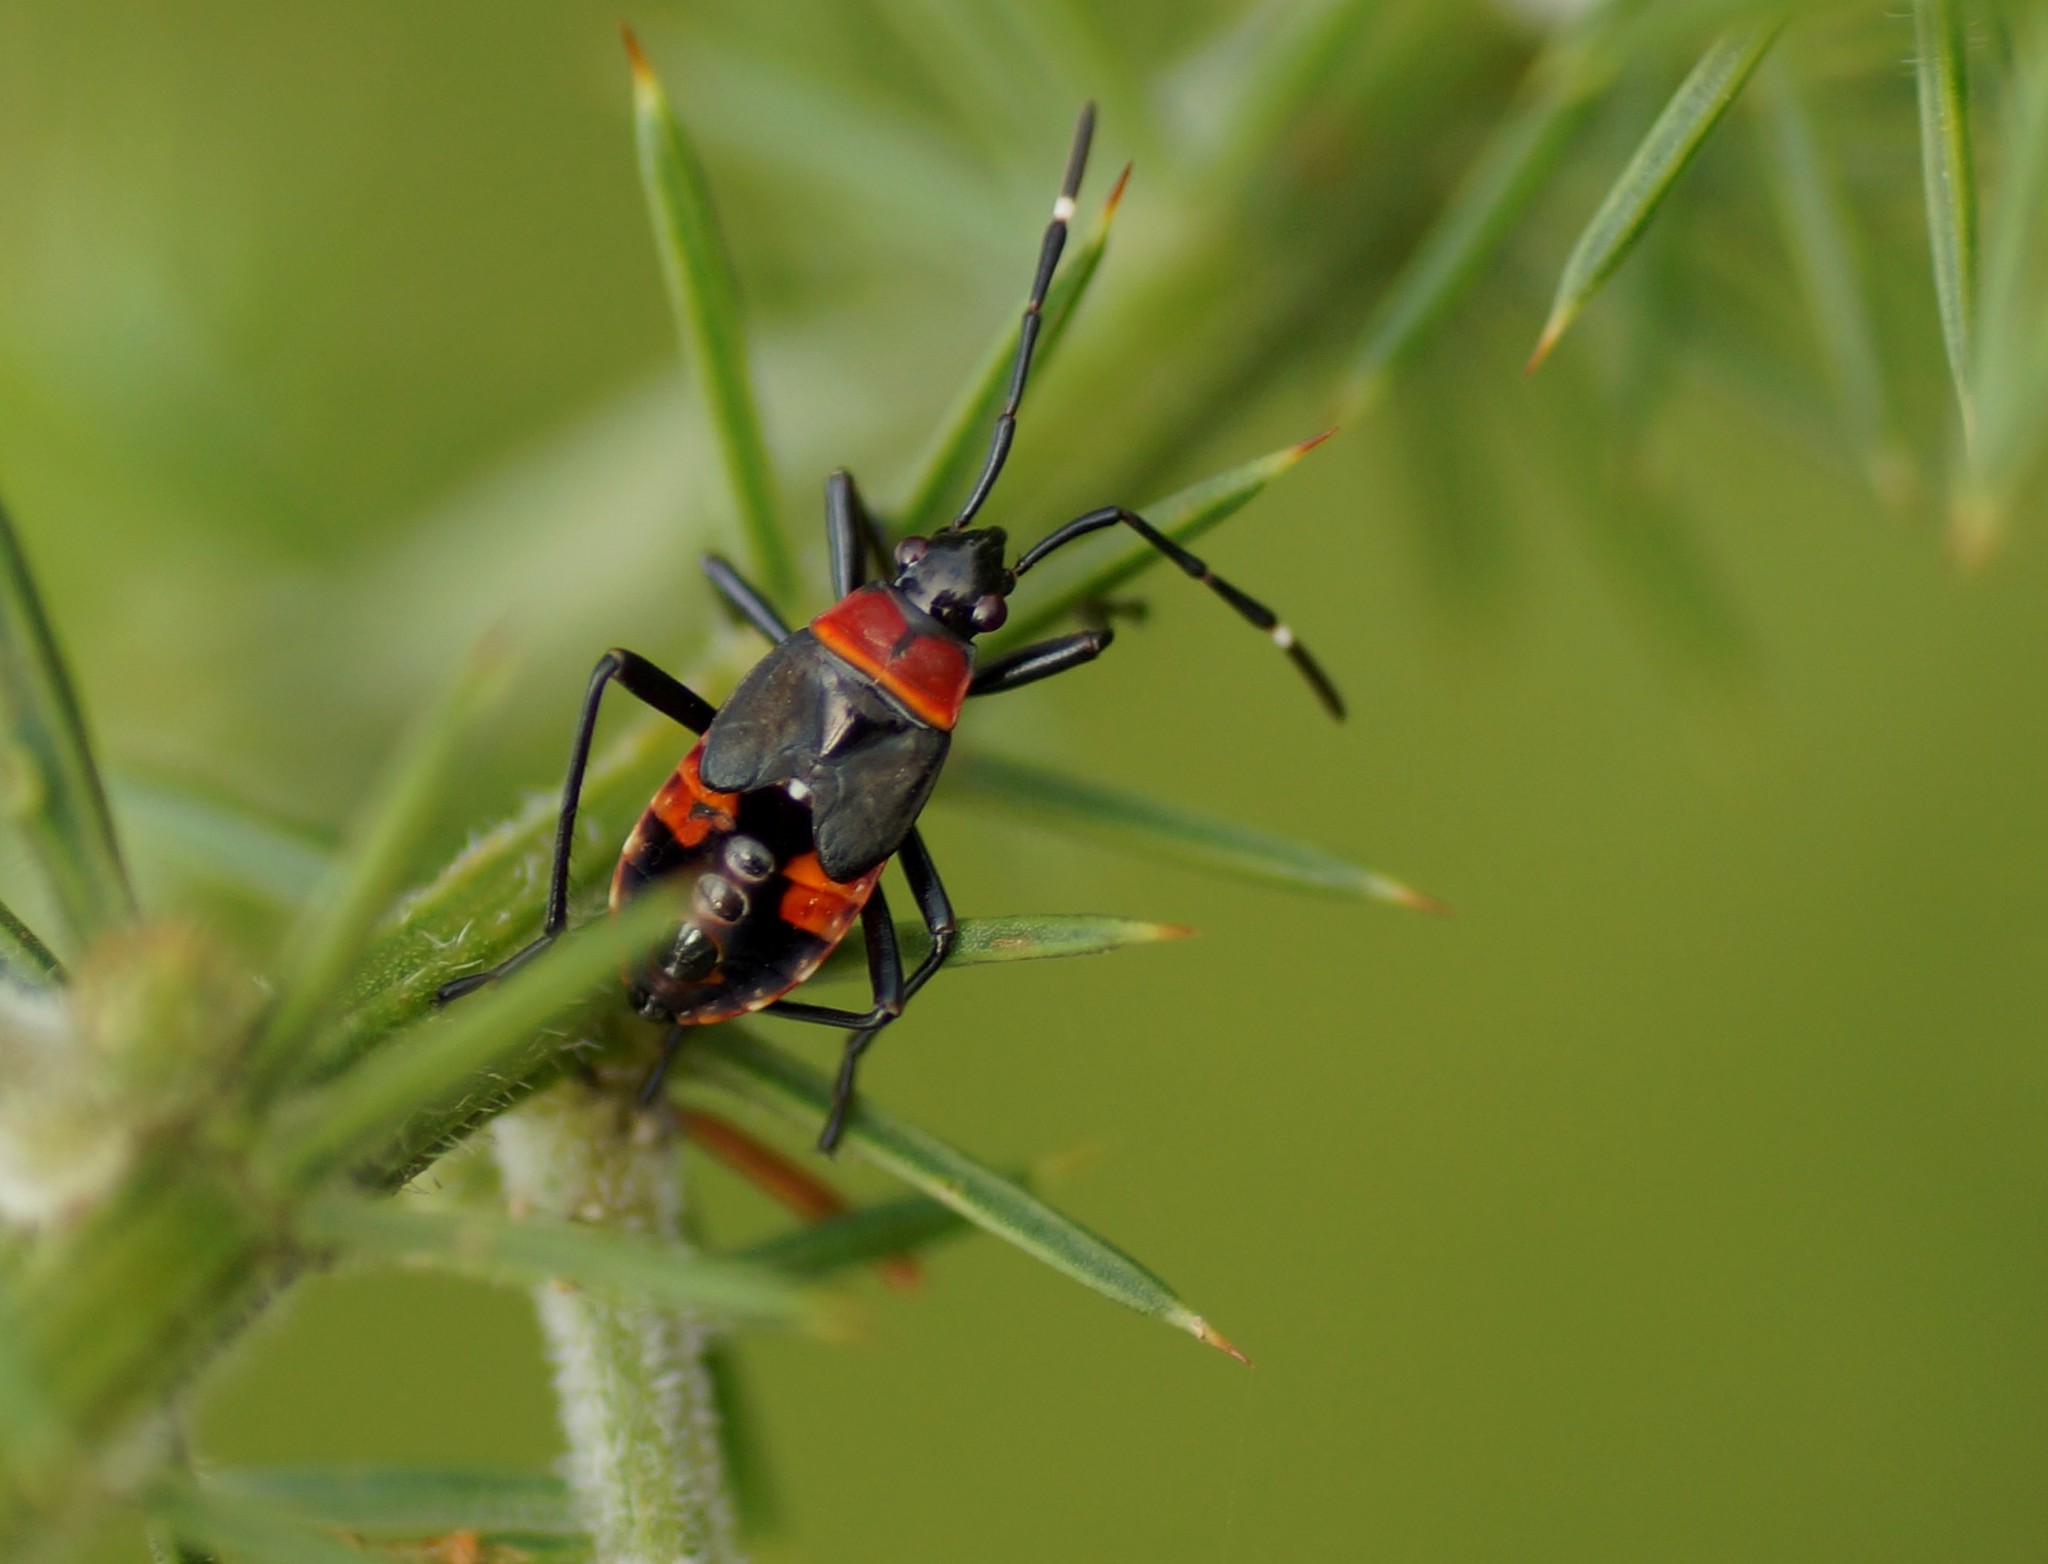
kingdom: Animalia
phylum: Arthropoda
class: Insecta
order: Hemiptera
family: Pyrrhocoridae
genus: Dindymus
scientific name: Dindymus
